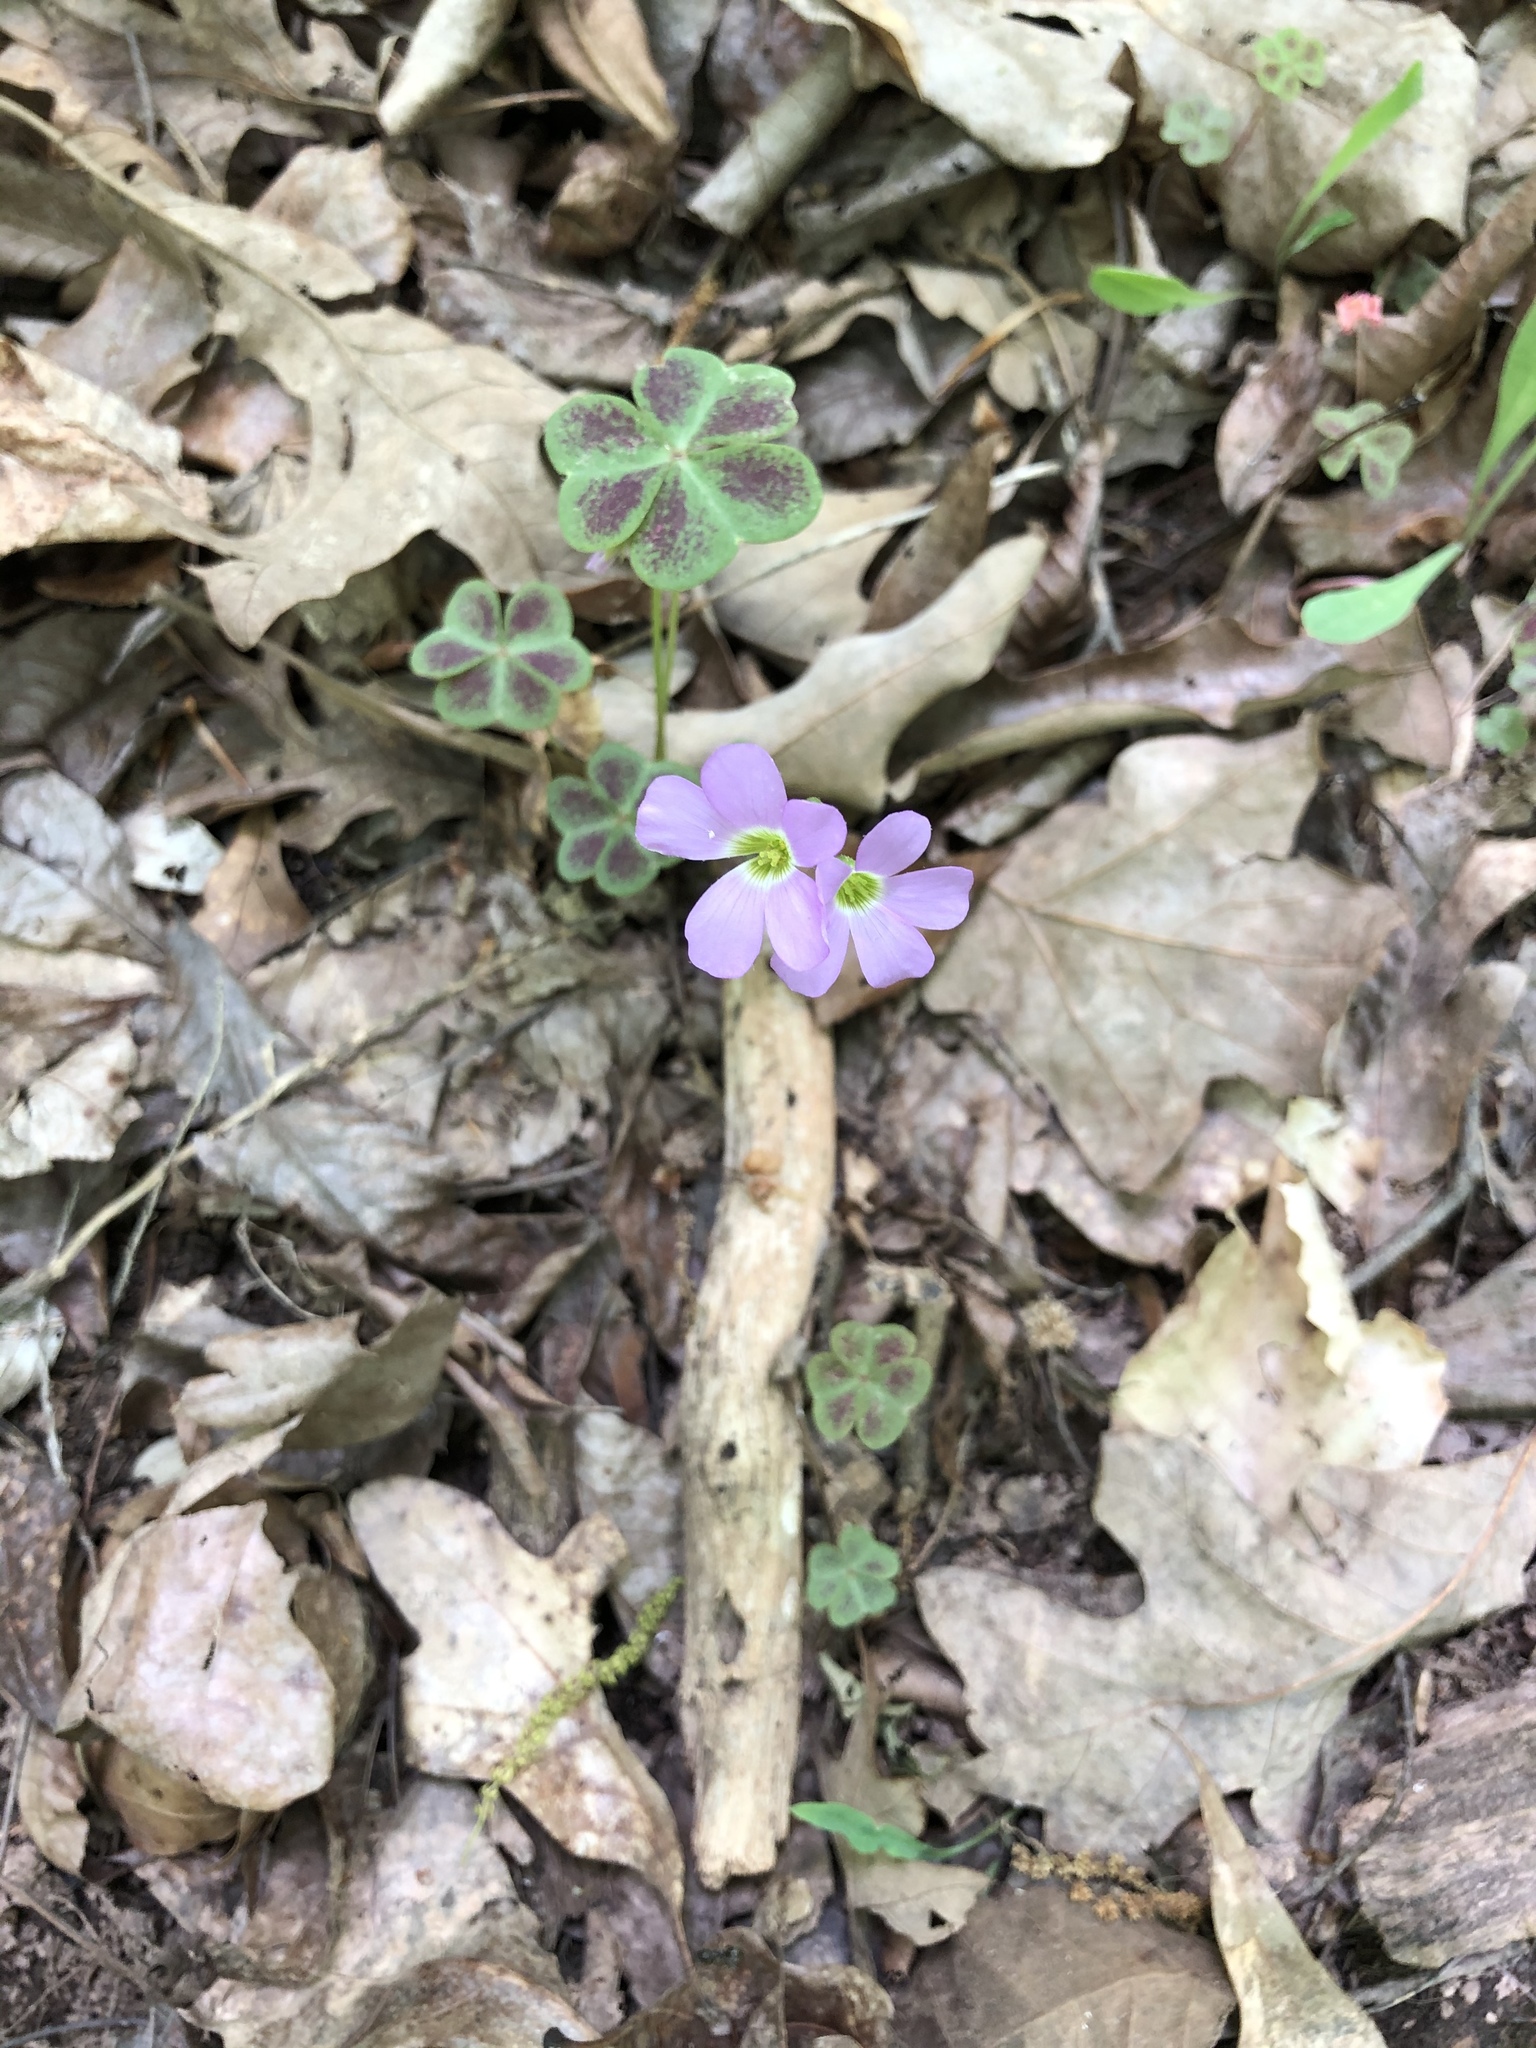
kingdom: Plantae
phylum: Tracheophyta
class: Magnoliopsida
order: Oxalidales
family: Oxalidaceae
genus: Oxalis
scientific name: Oxalis violacea
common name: Violet wood-sorrel
